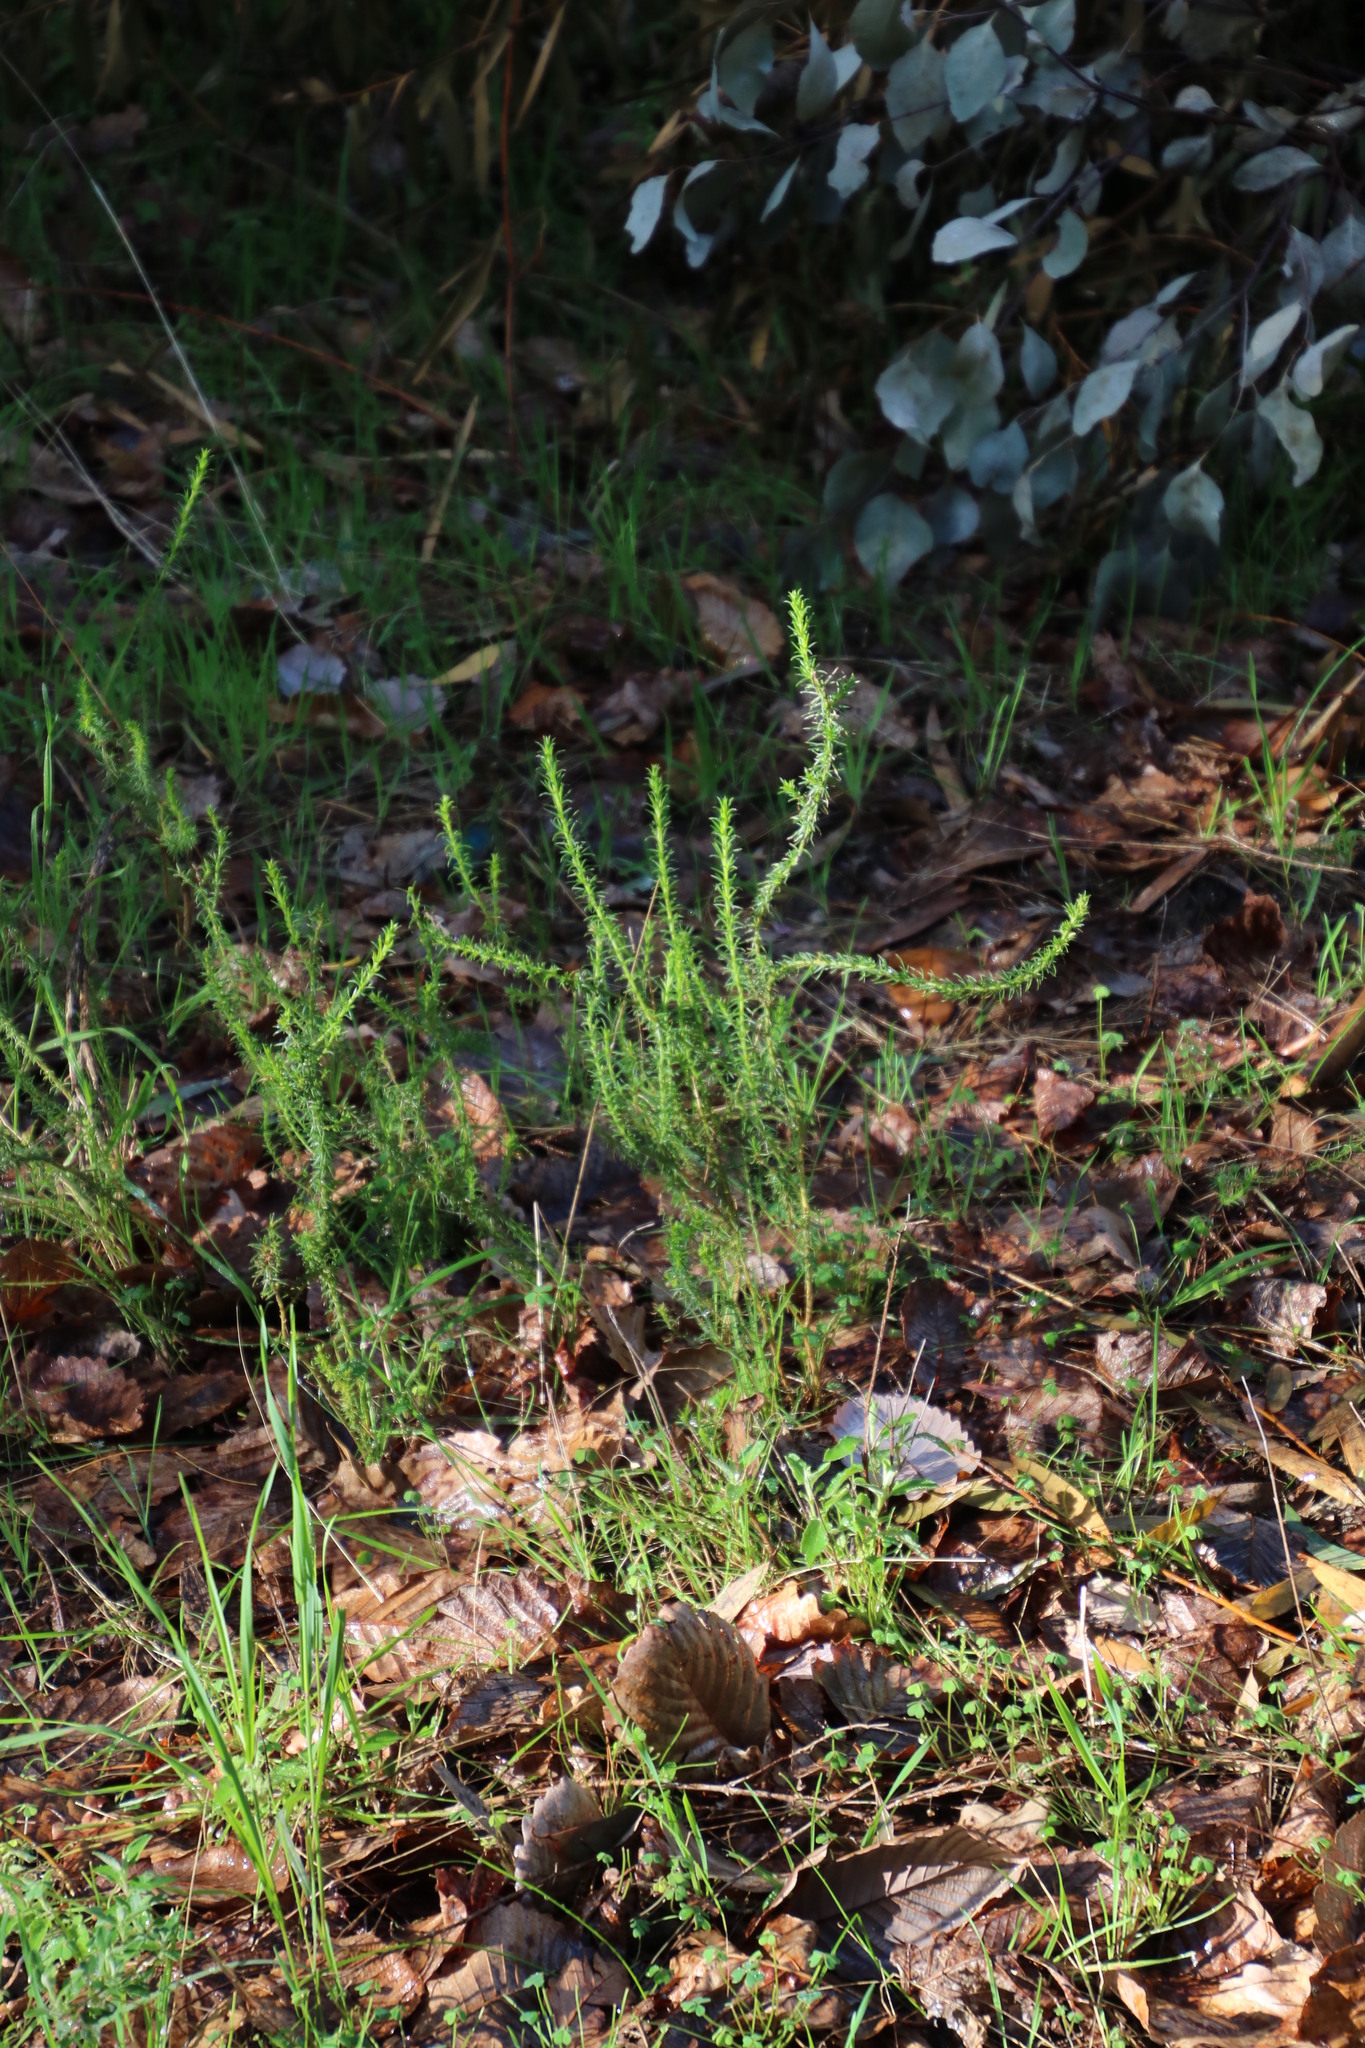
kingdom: Plantae
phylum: Tracheophyta
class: Magnoliopsida
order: Fabales
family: Polygalaceae
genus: Muraltia
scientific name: Muraltia heisteria
